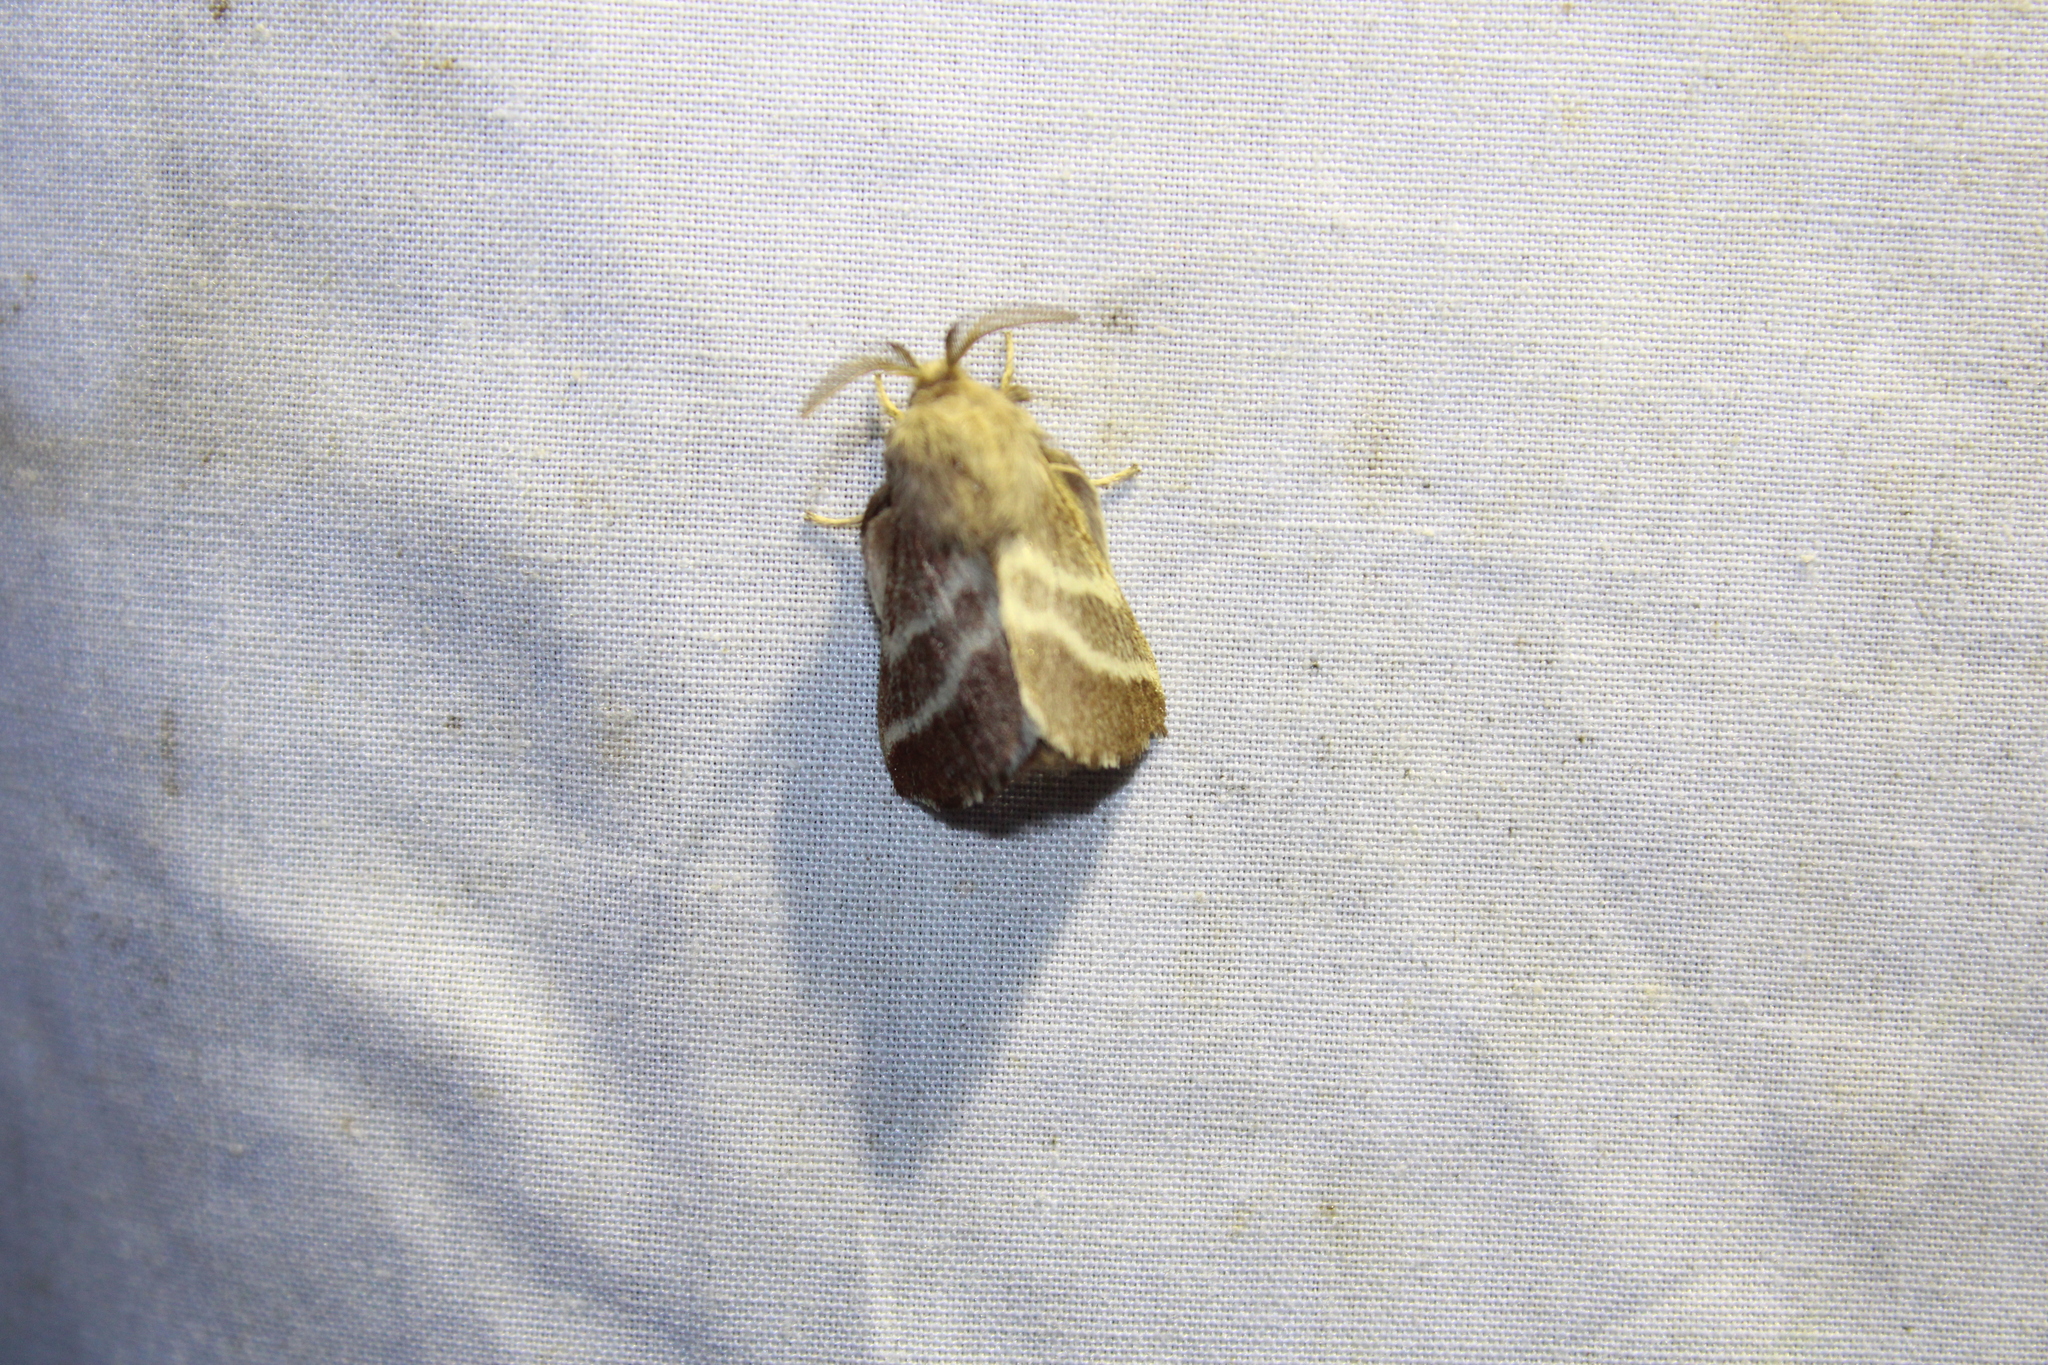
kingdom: Animalia
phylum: Arthropoda
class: Insecta
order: Lepidoptera
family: Lasiocampidae
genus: Malacosoma
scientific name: Malacosoma americana
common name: Eastern tent caterpillar moth
